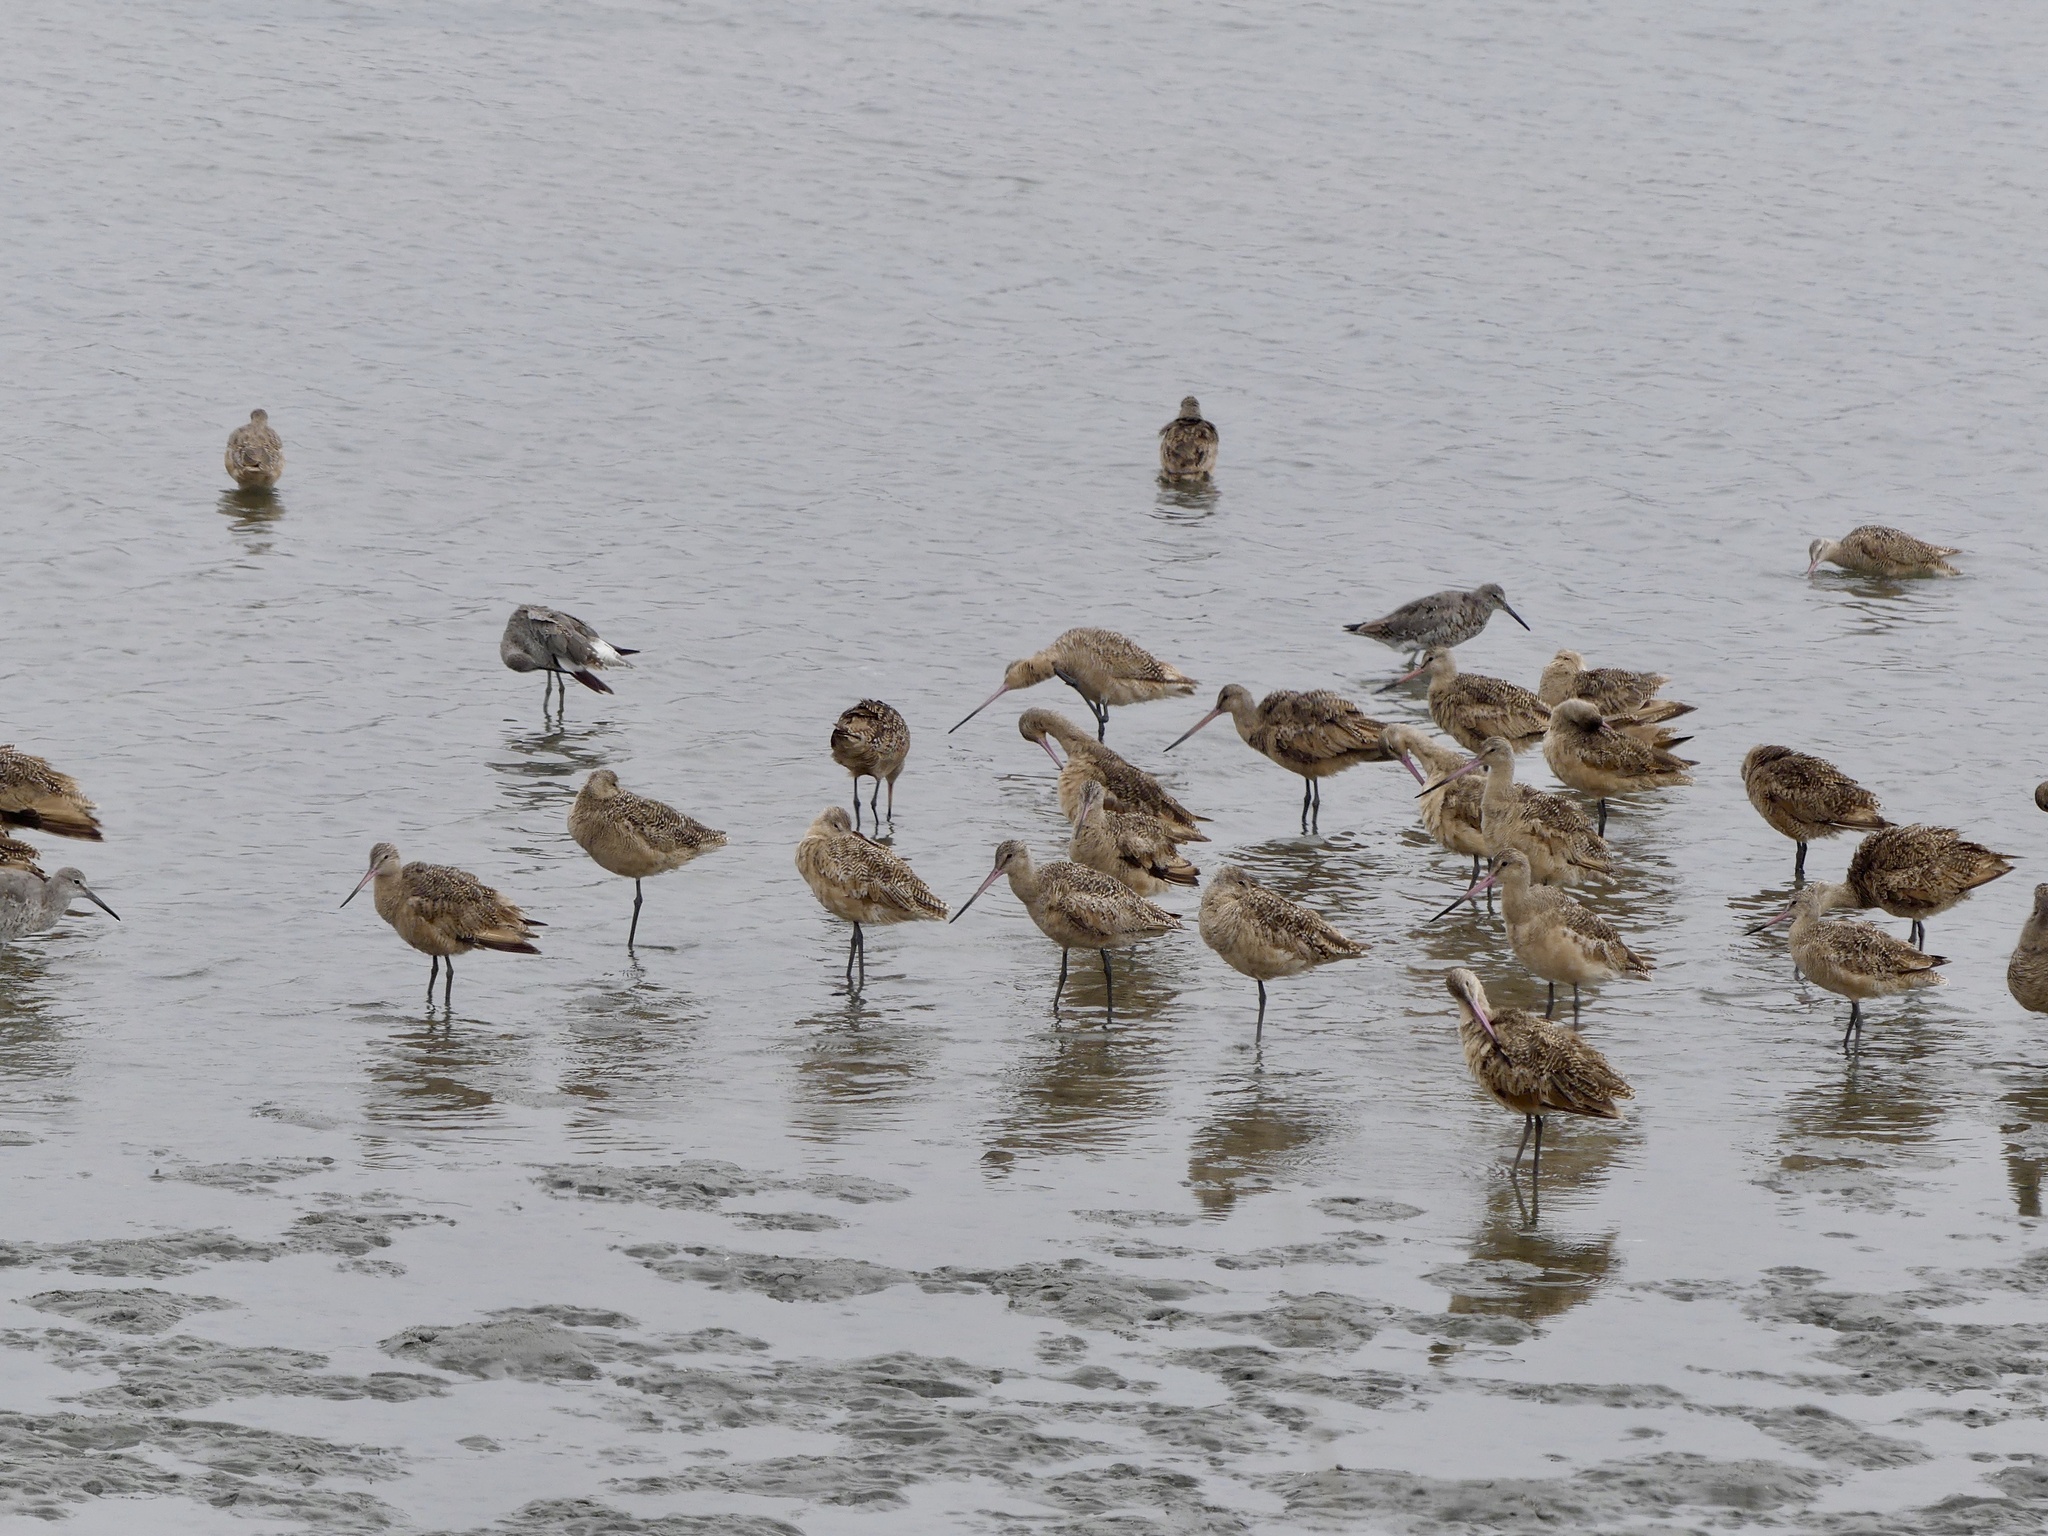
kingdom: Animalia
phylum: Chordata
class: Aves
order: Charadriiformes
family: Scolopacidae
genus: Limosa
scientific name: Limosa fedoa
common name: Marbled godwit
